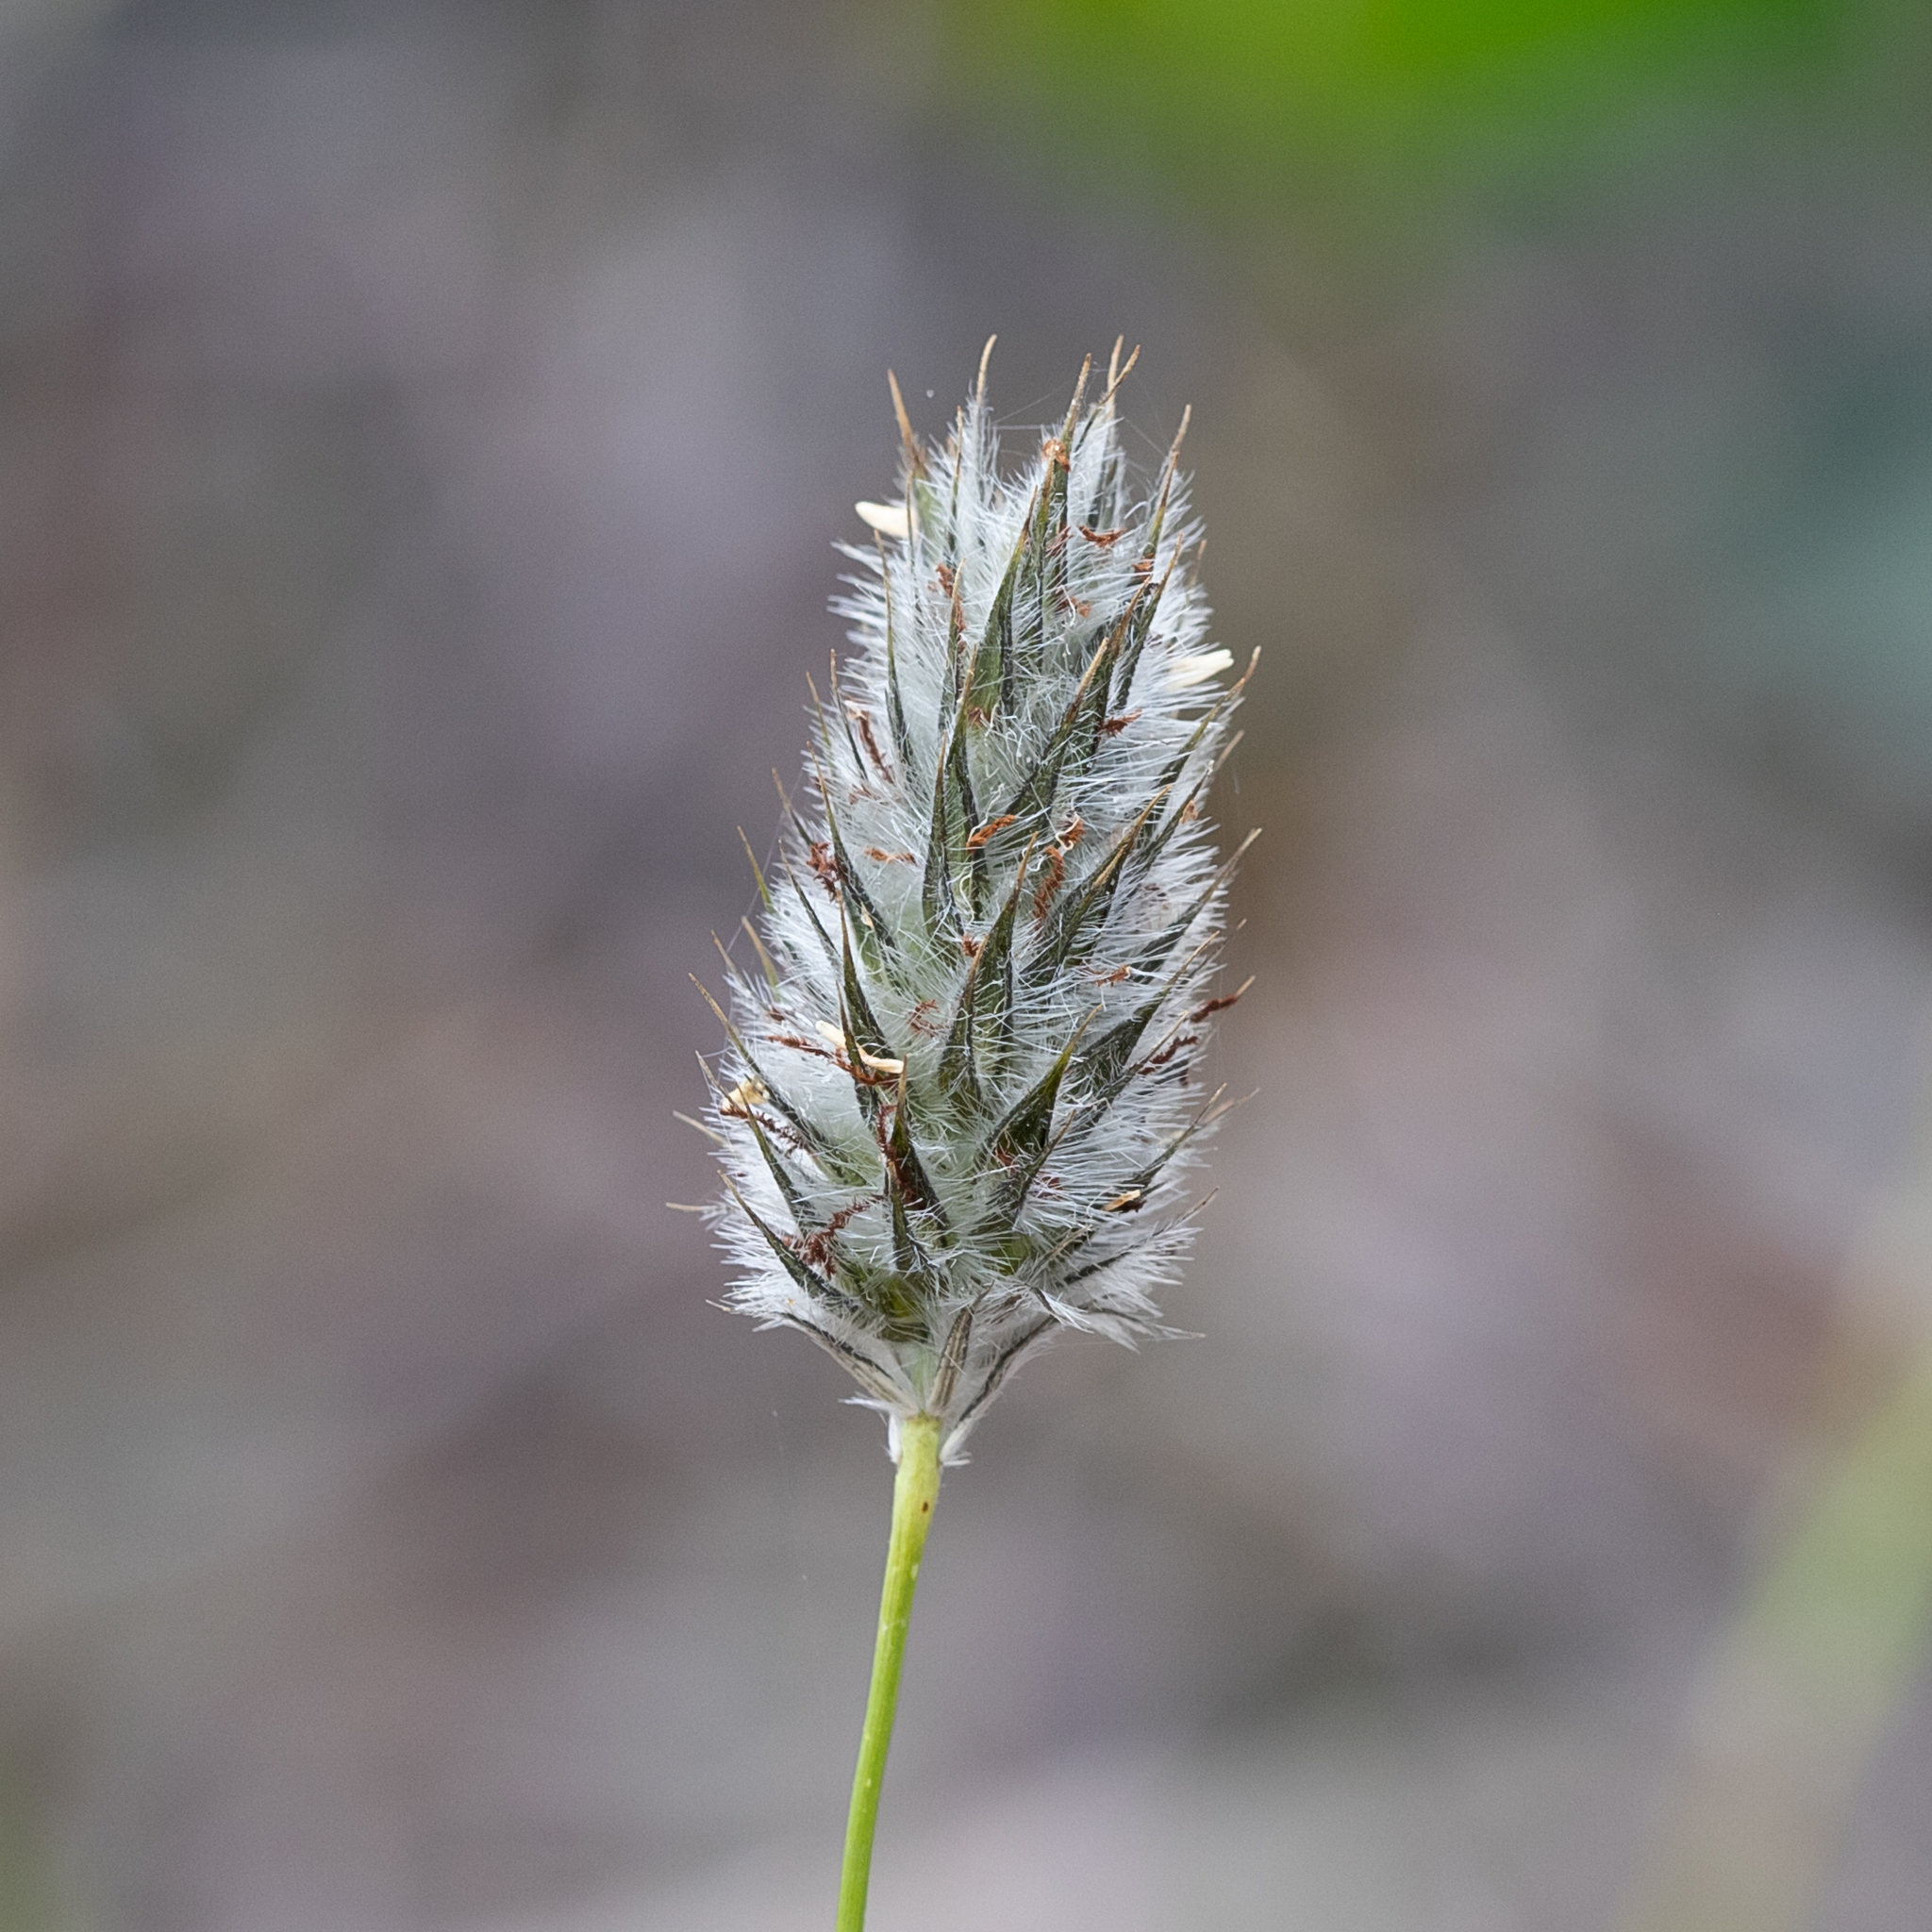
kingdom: Plantae
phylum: Tracheophyta
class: Liliopsida
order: Poales
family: Poaceae
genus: Neurachne
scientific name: Neurachne alopecuroidea
